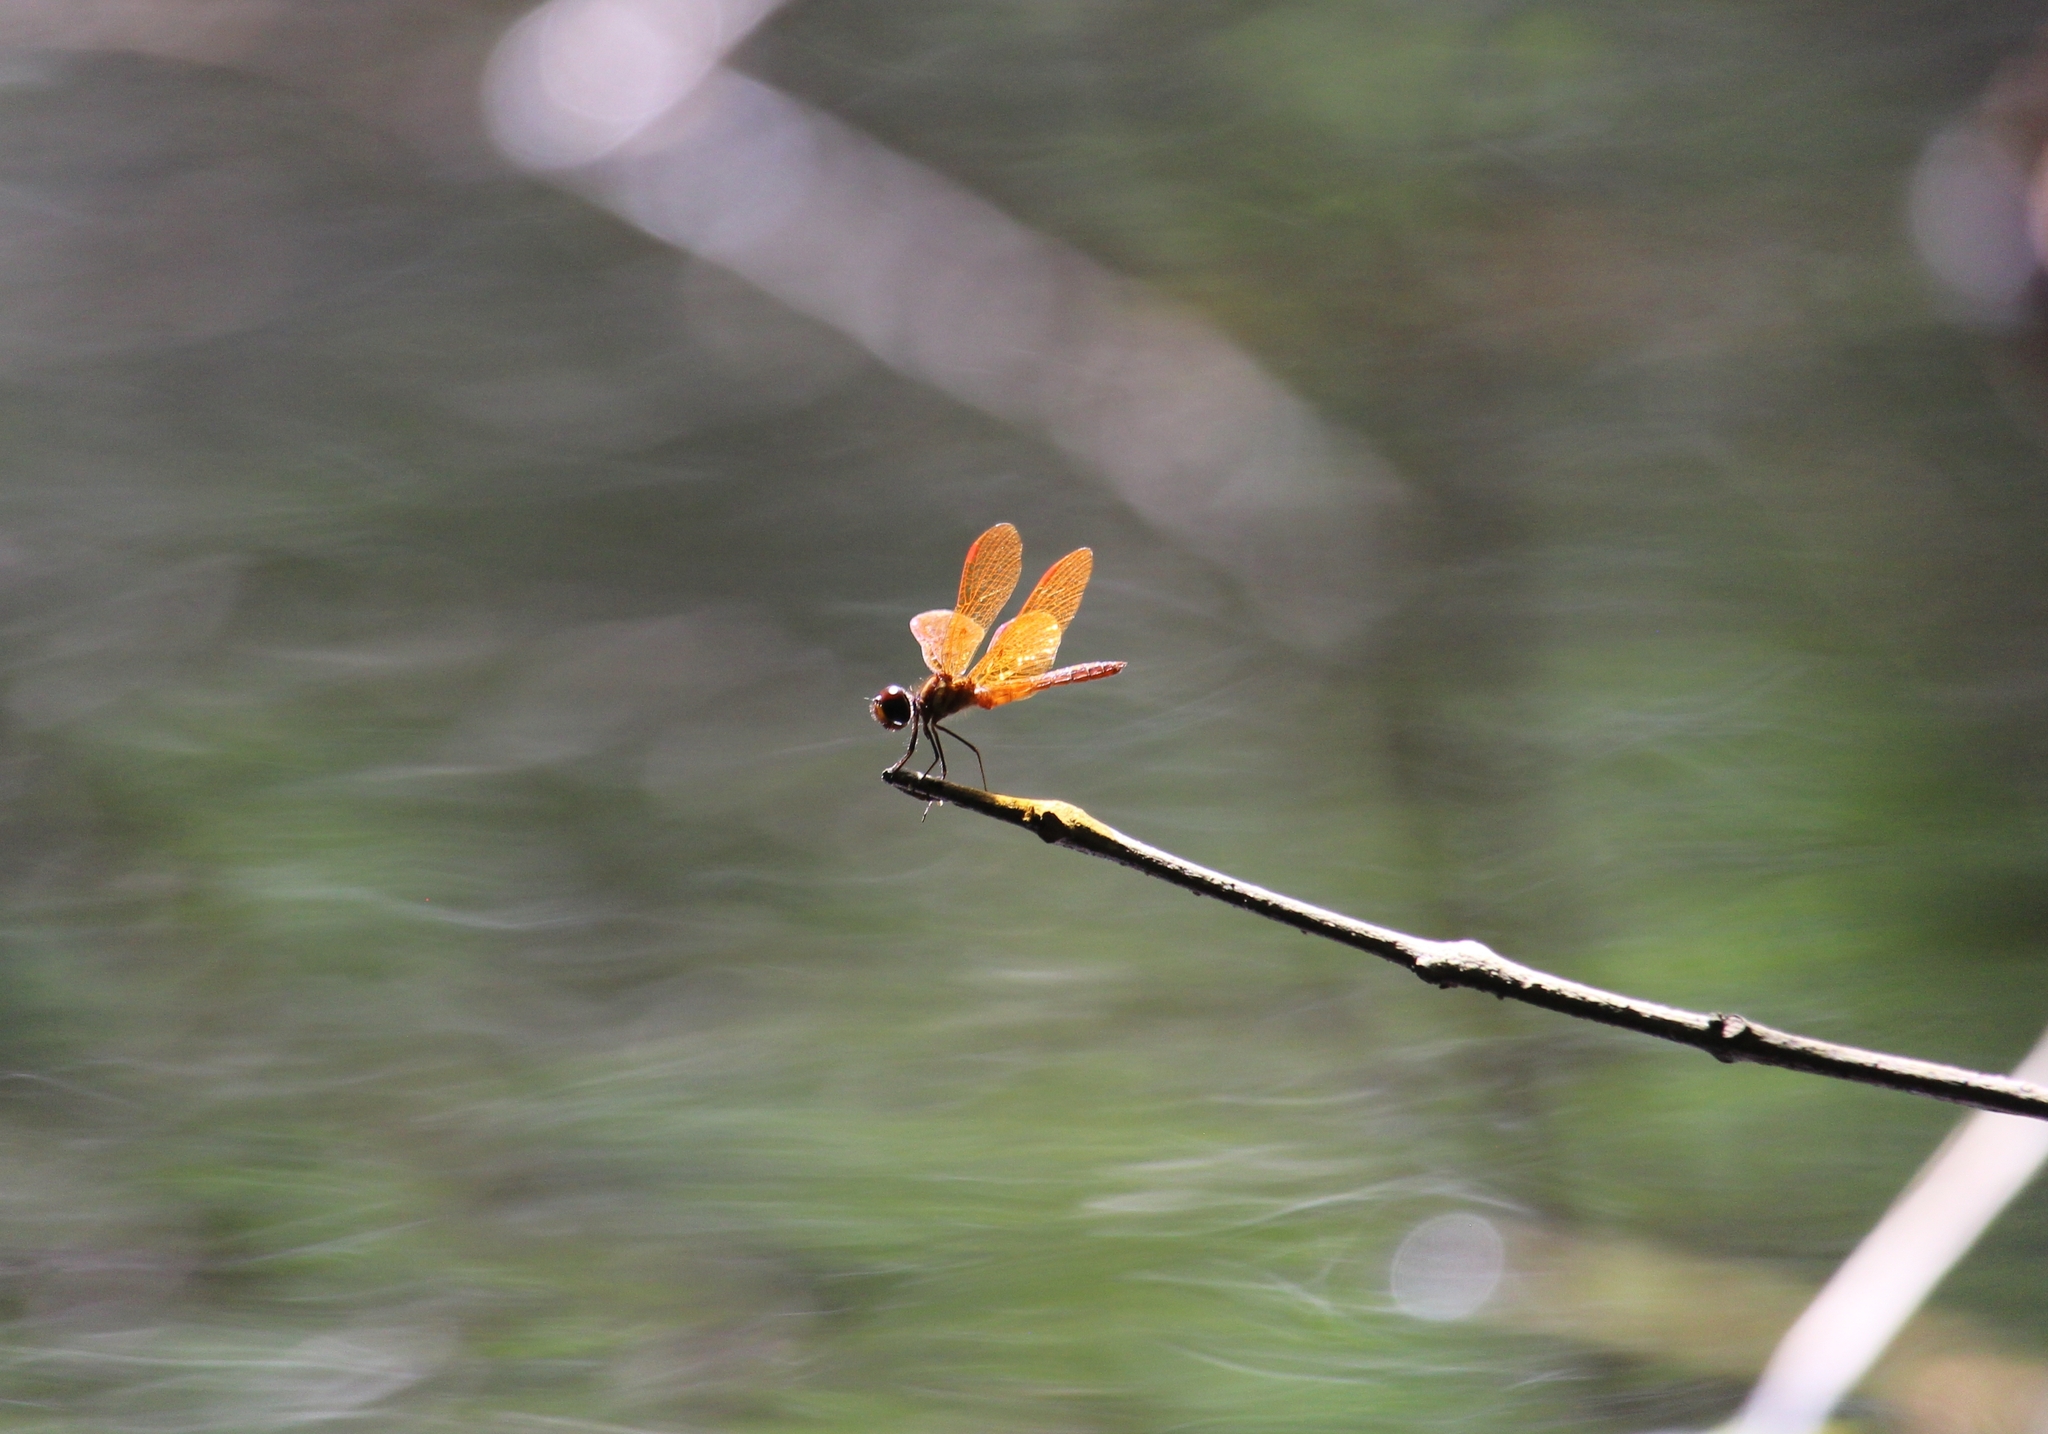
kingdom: Animalia
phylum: Arthropoda
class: Insecta
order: Odonata
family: Libellulidae
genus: Perithemis
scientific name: Perithemis tenera
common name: Eastern amberwing
